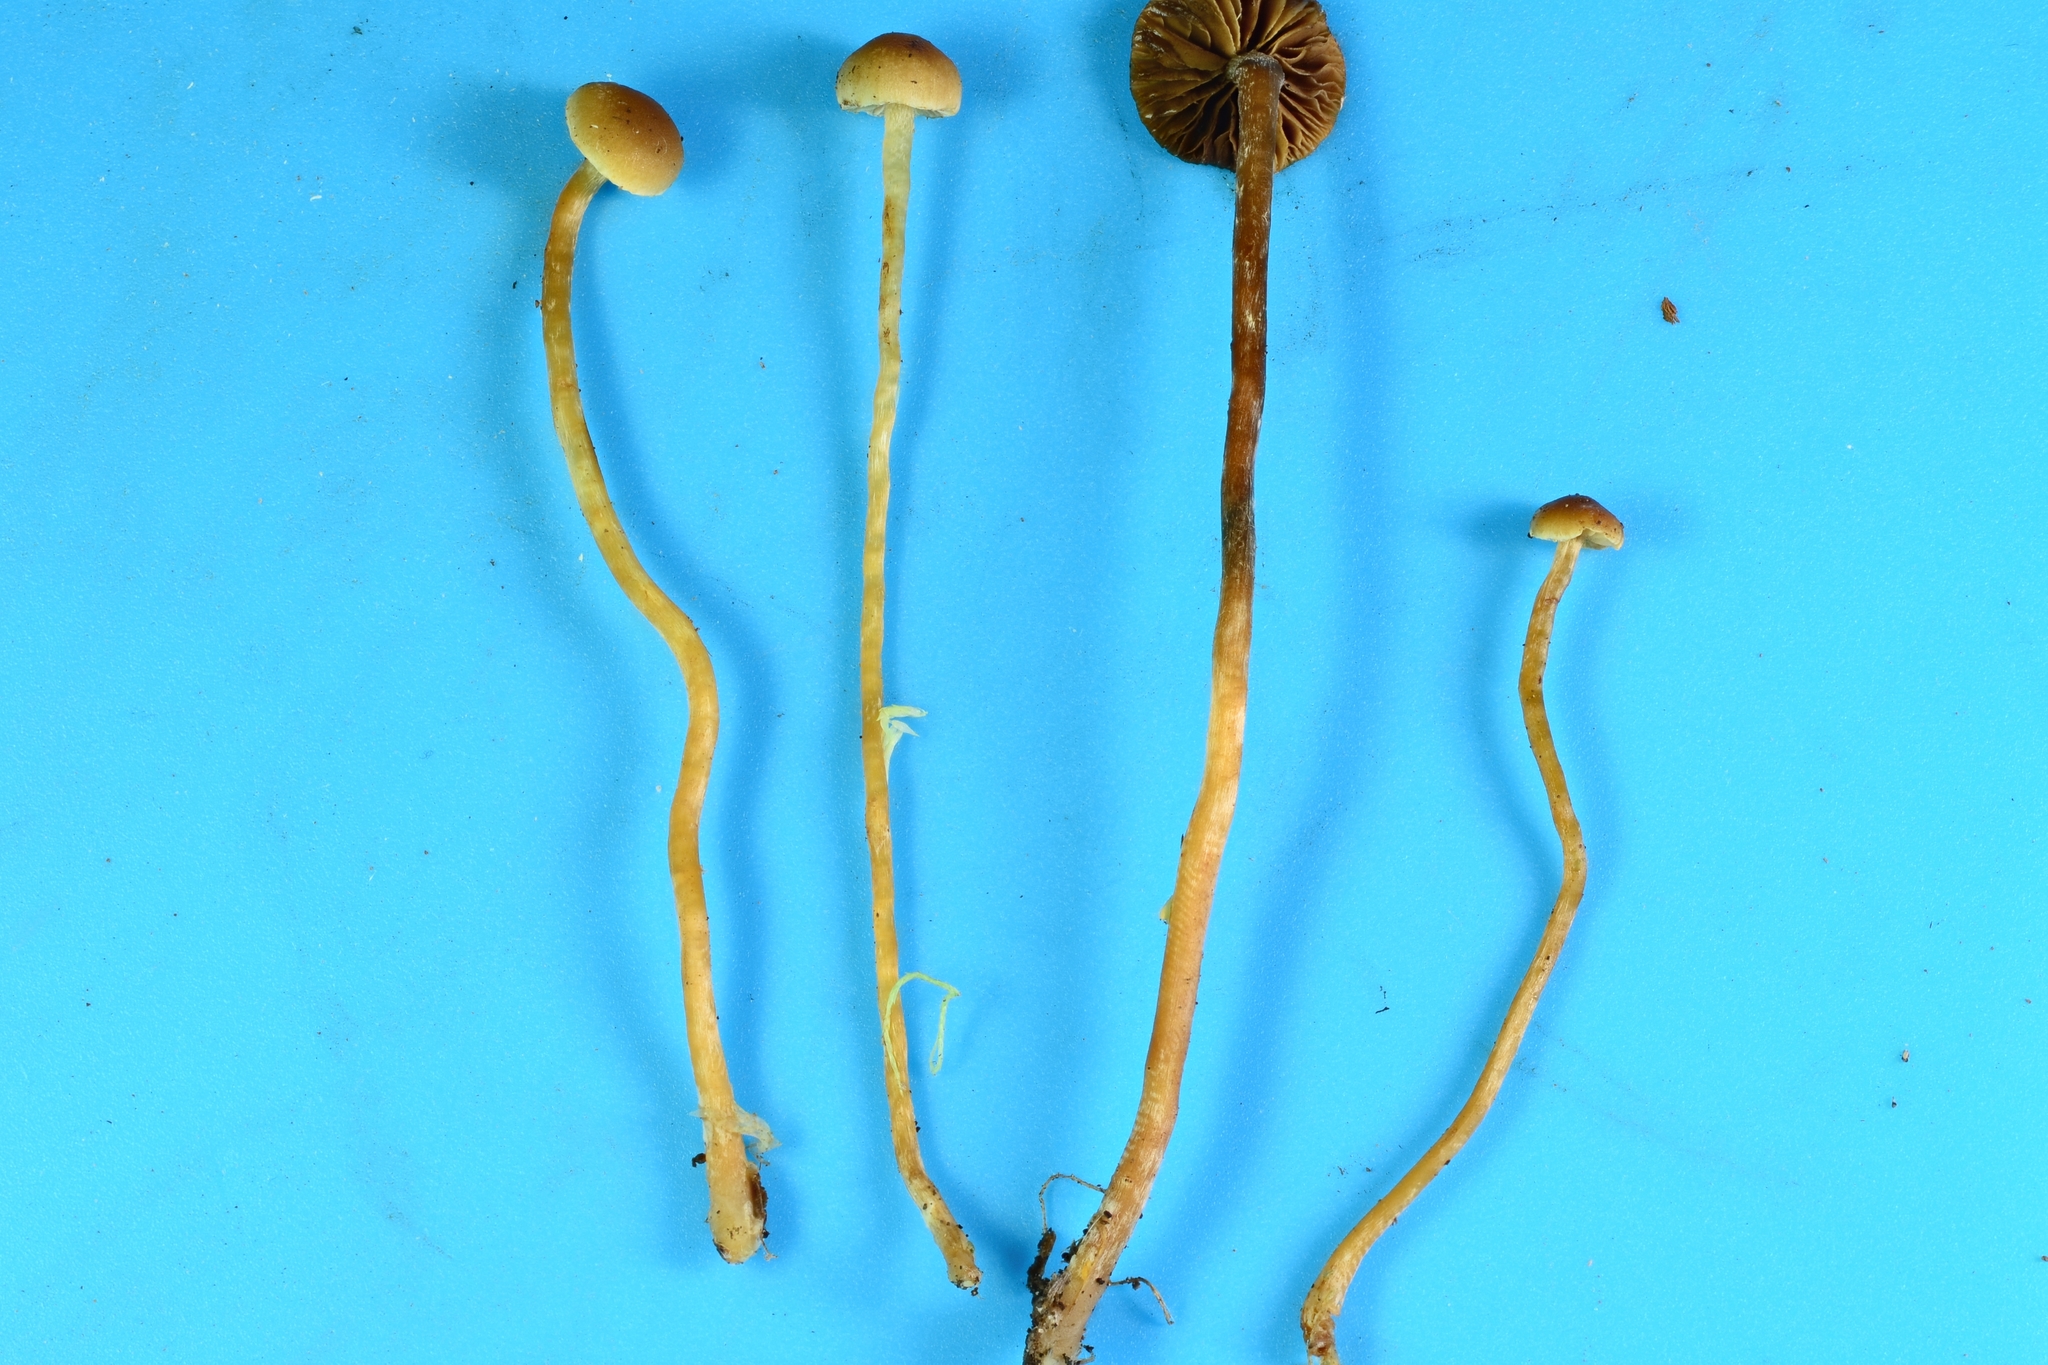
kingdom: Fungi
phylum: Basidiomycota
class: Agaricomycetes
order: Agaricales
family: Strophariaceae
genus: Hypholoma
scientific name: Hypholoma elongatum
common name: Sphagnum brownie
